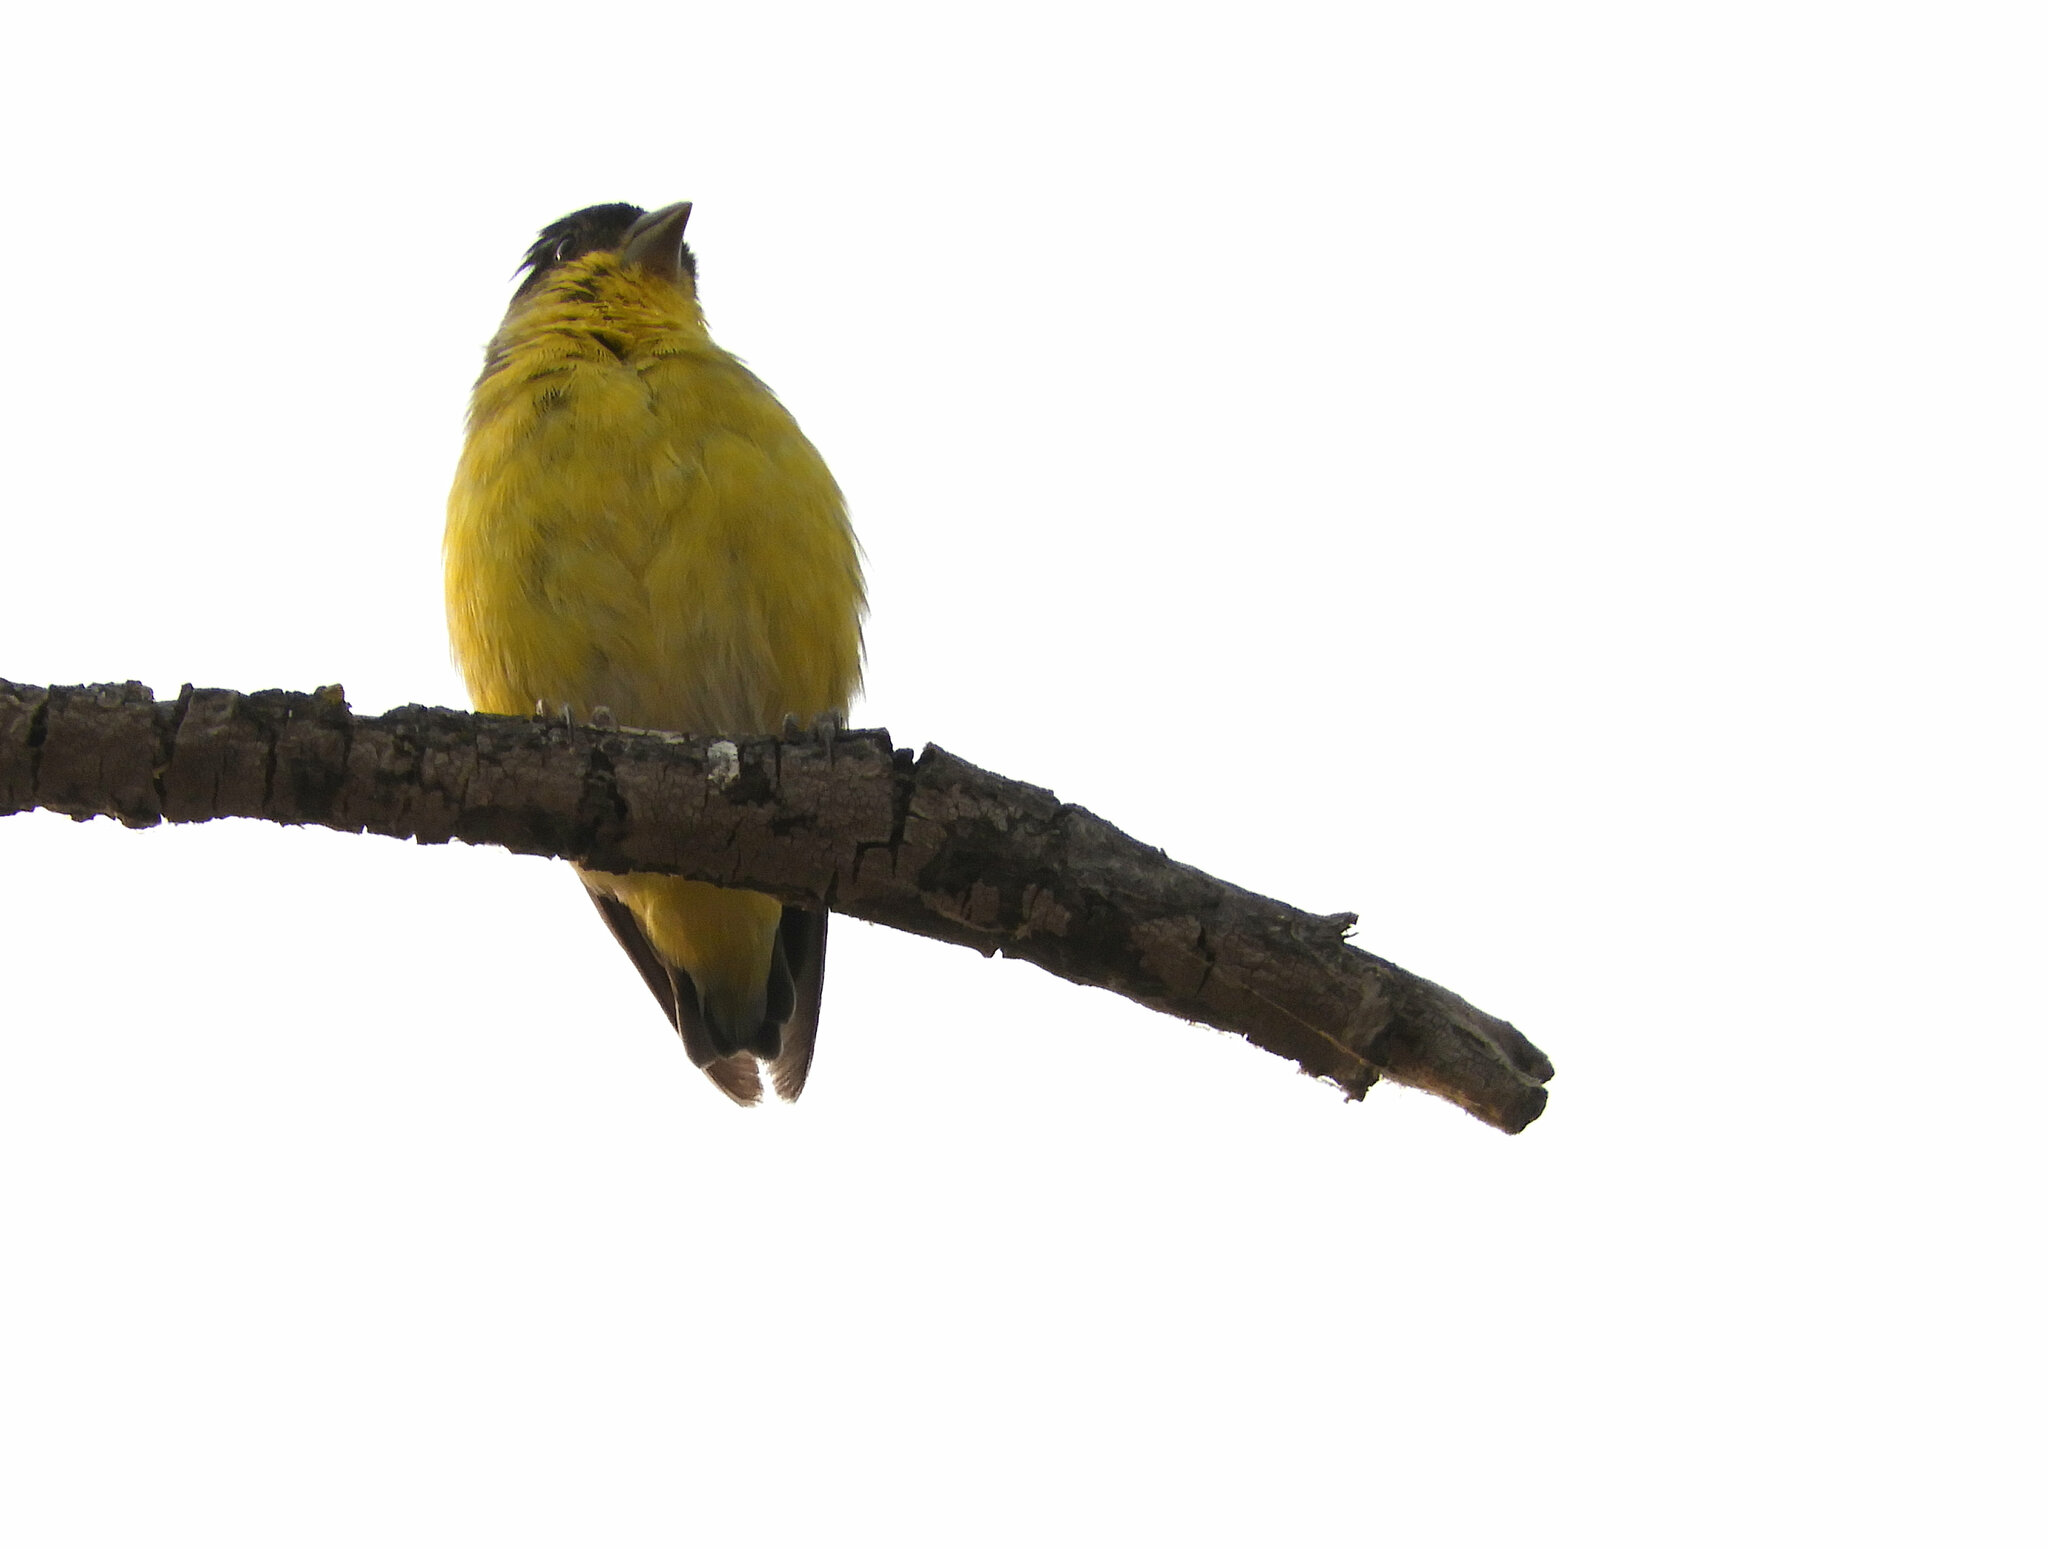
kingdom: Animalia
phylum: Chordata
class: Aves
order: Passeriformes
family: Fringillidae
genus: Spinus
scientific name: Spinus psaltria
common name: Lesser goldfinch
